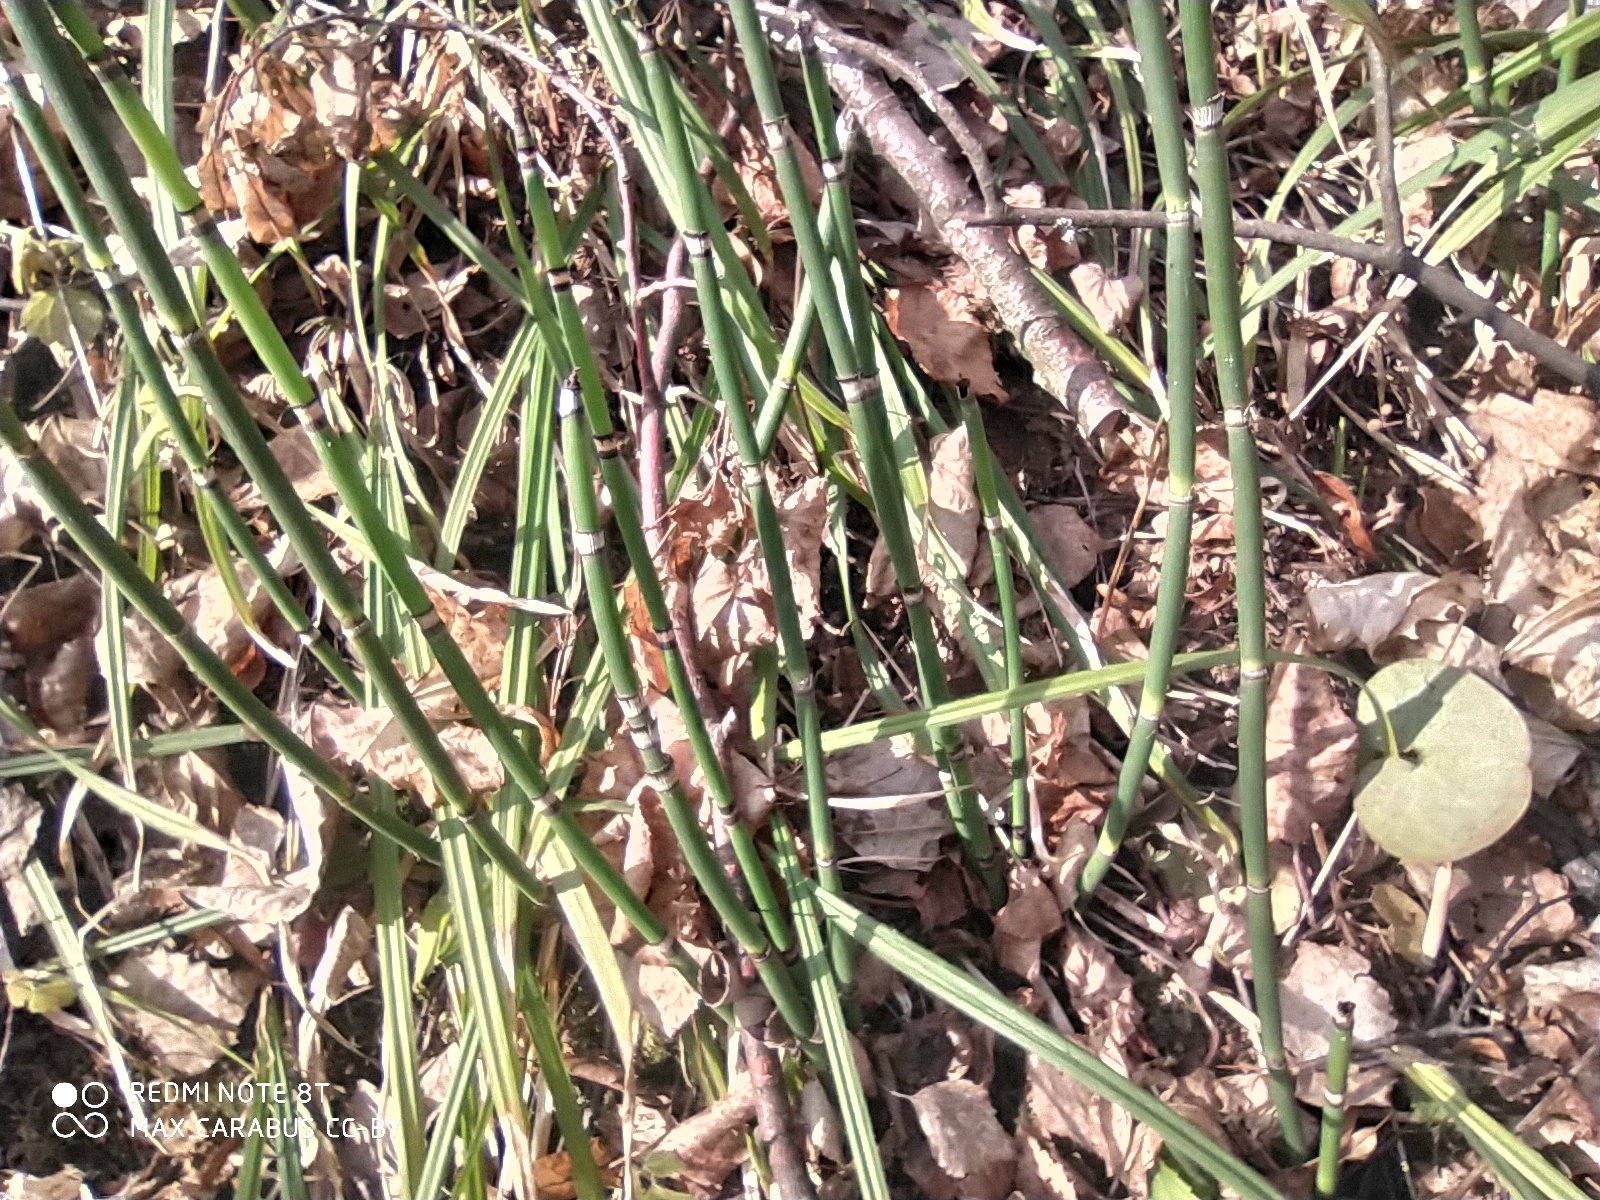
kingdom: Plantae
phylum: Tracheophyta
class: Polypodiopsida
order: Equisetales
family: Equisetaceae
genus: Equisetum
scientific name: Equisetum hyemale
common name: Rough horsetail
